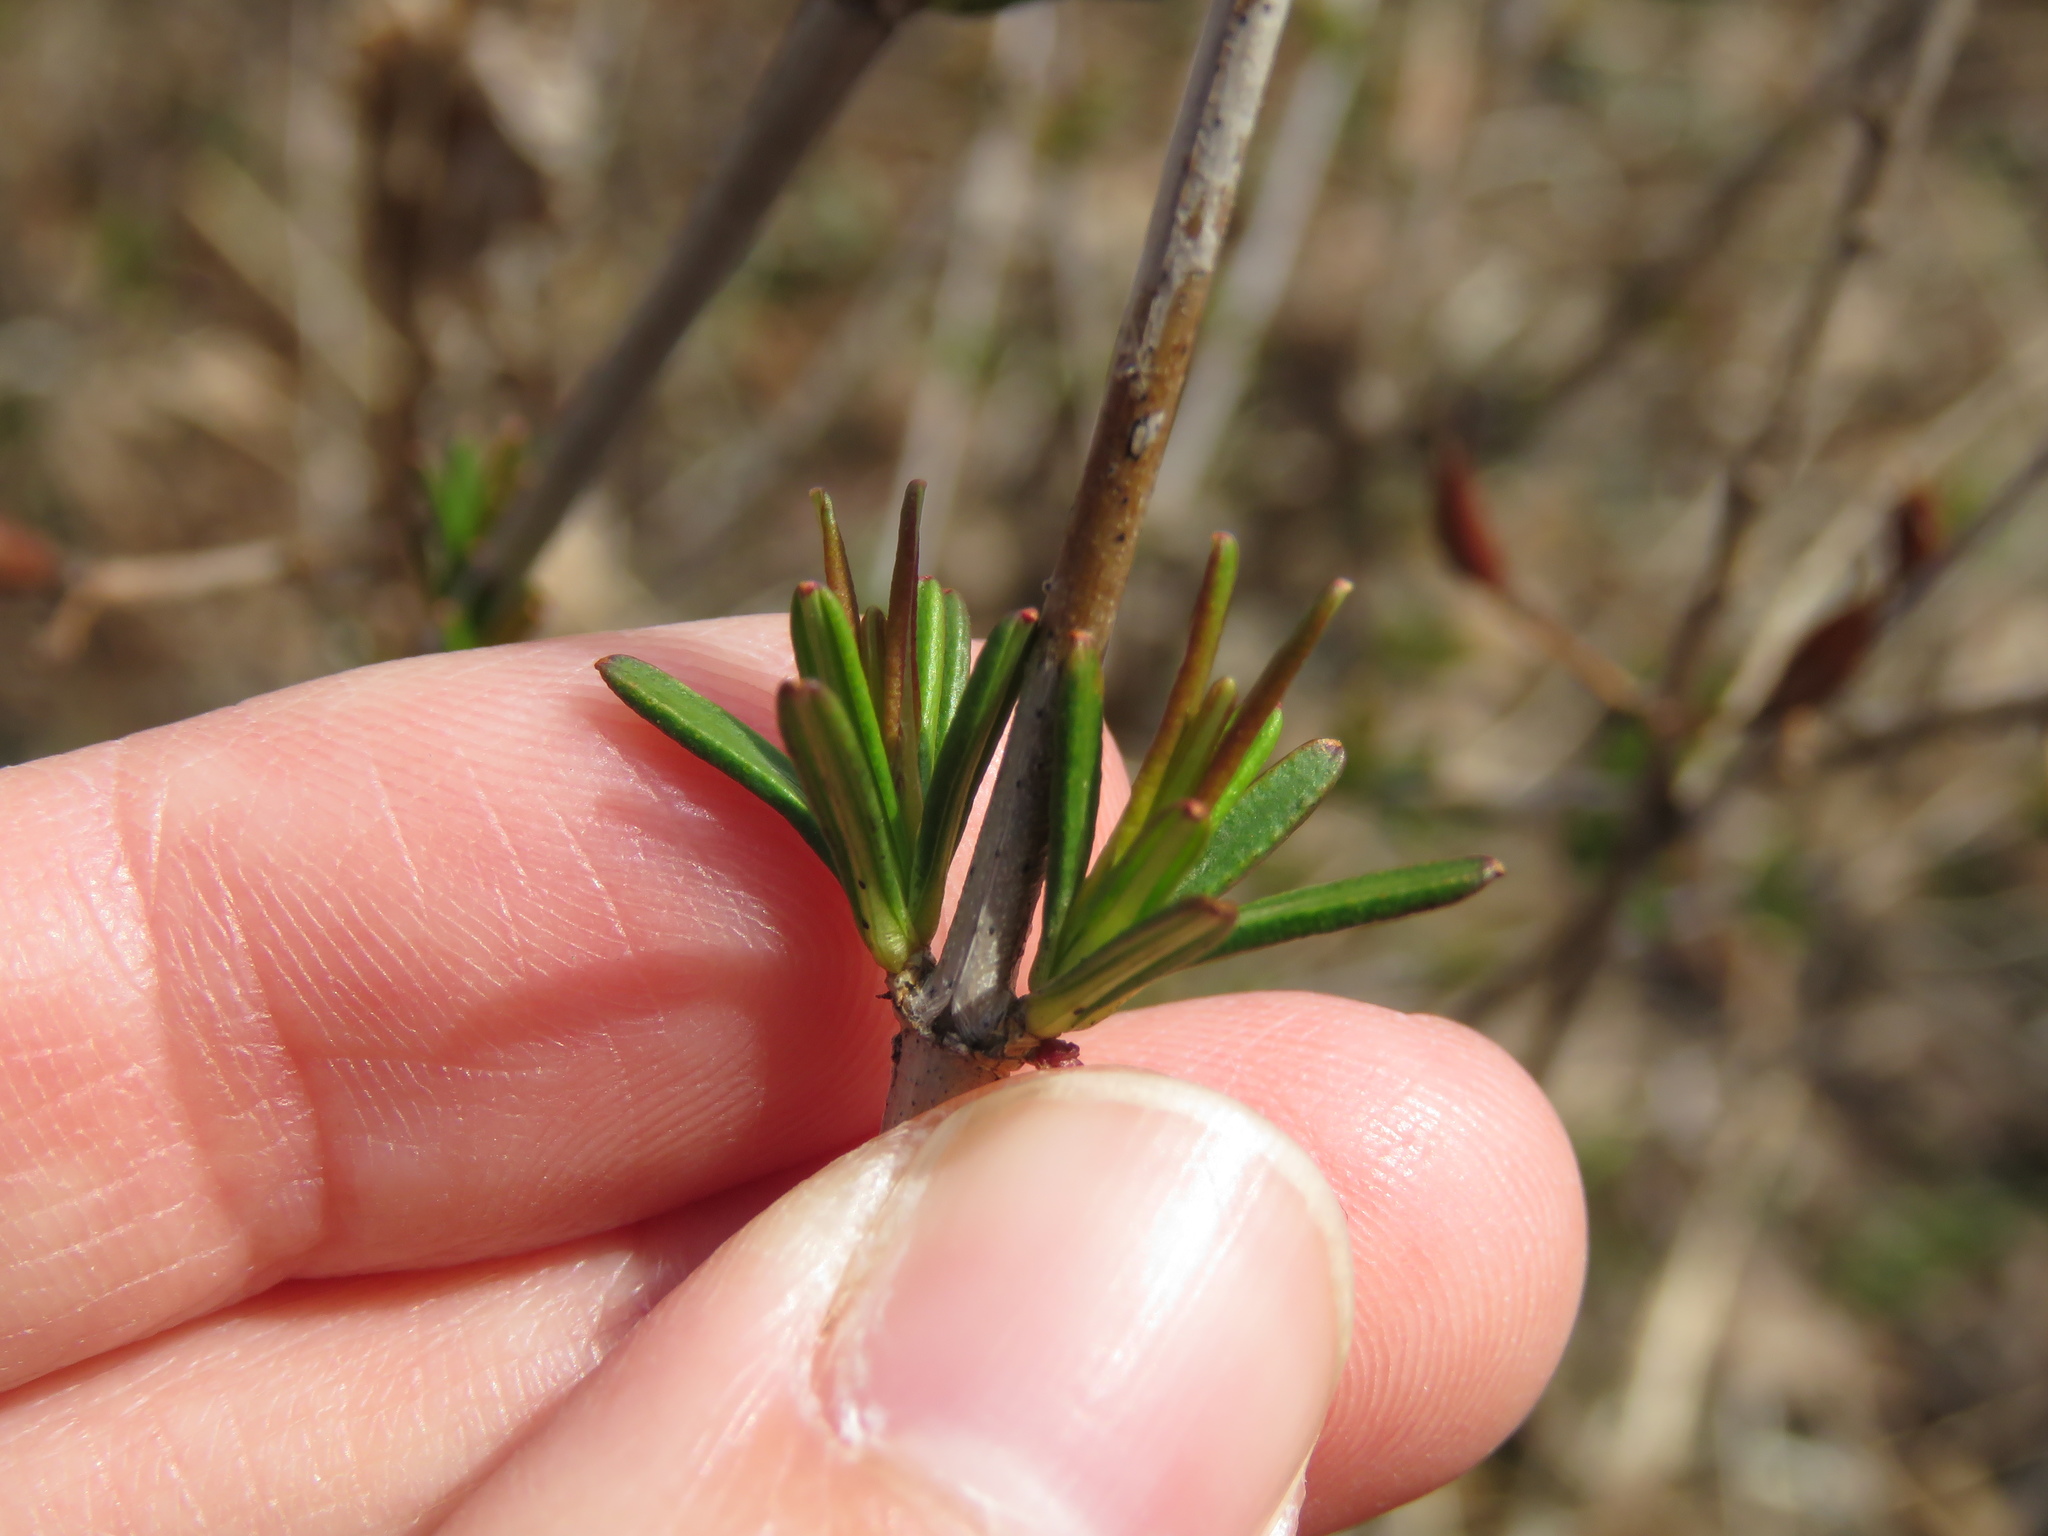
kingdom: Plantae
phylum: Tracheophyta
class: Magnoliopsida
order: Malpighiales
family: Hypericaceae
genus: Hypericum
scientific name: Hypericum prolificum
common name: Shrubby st. john's-wort
